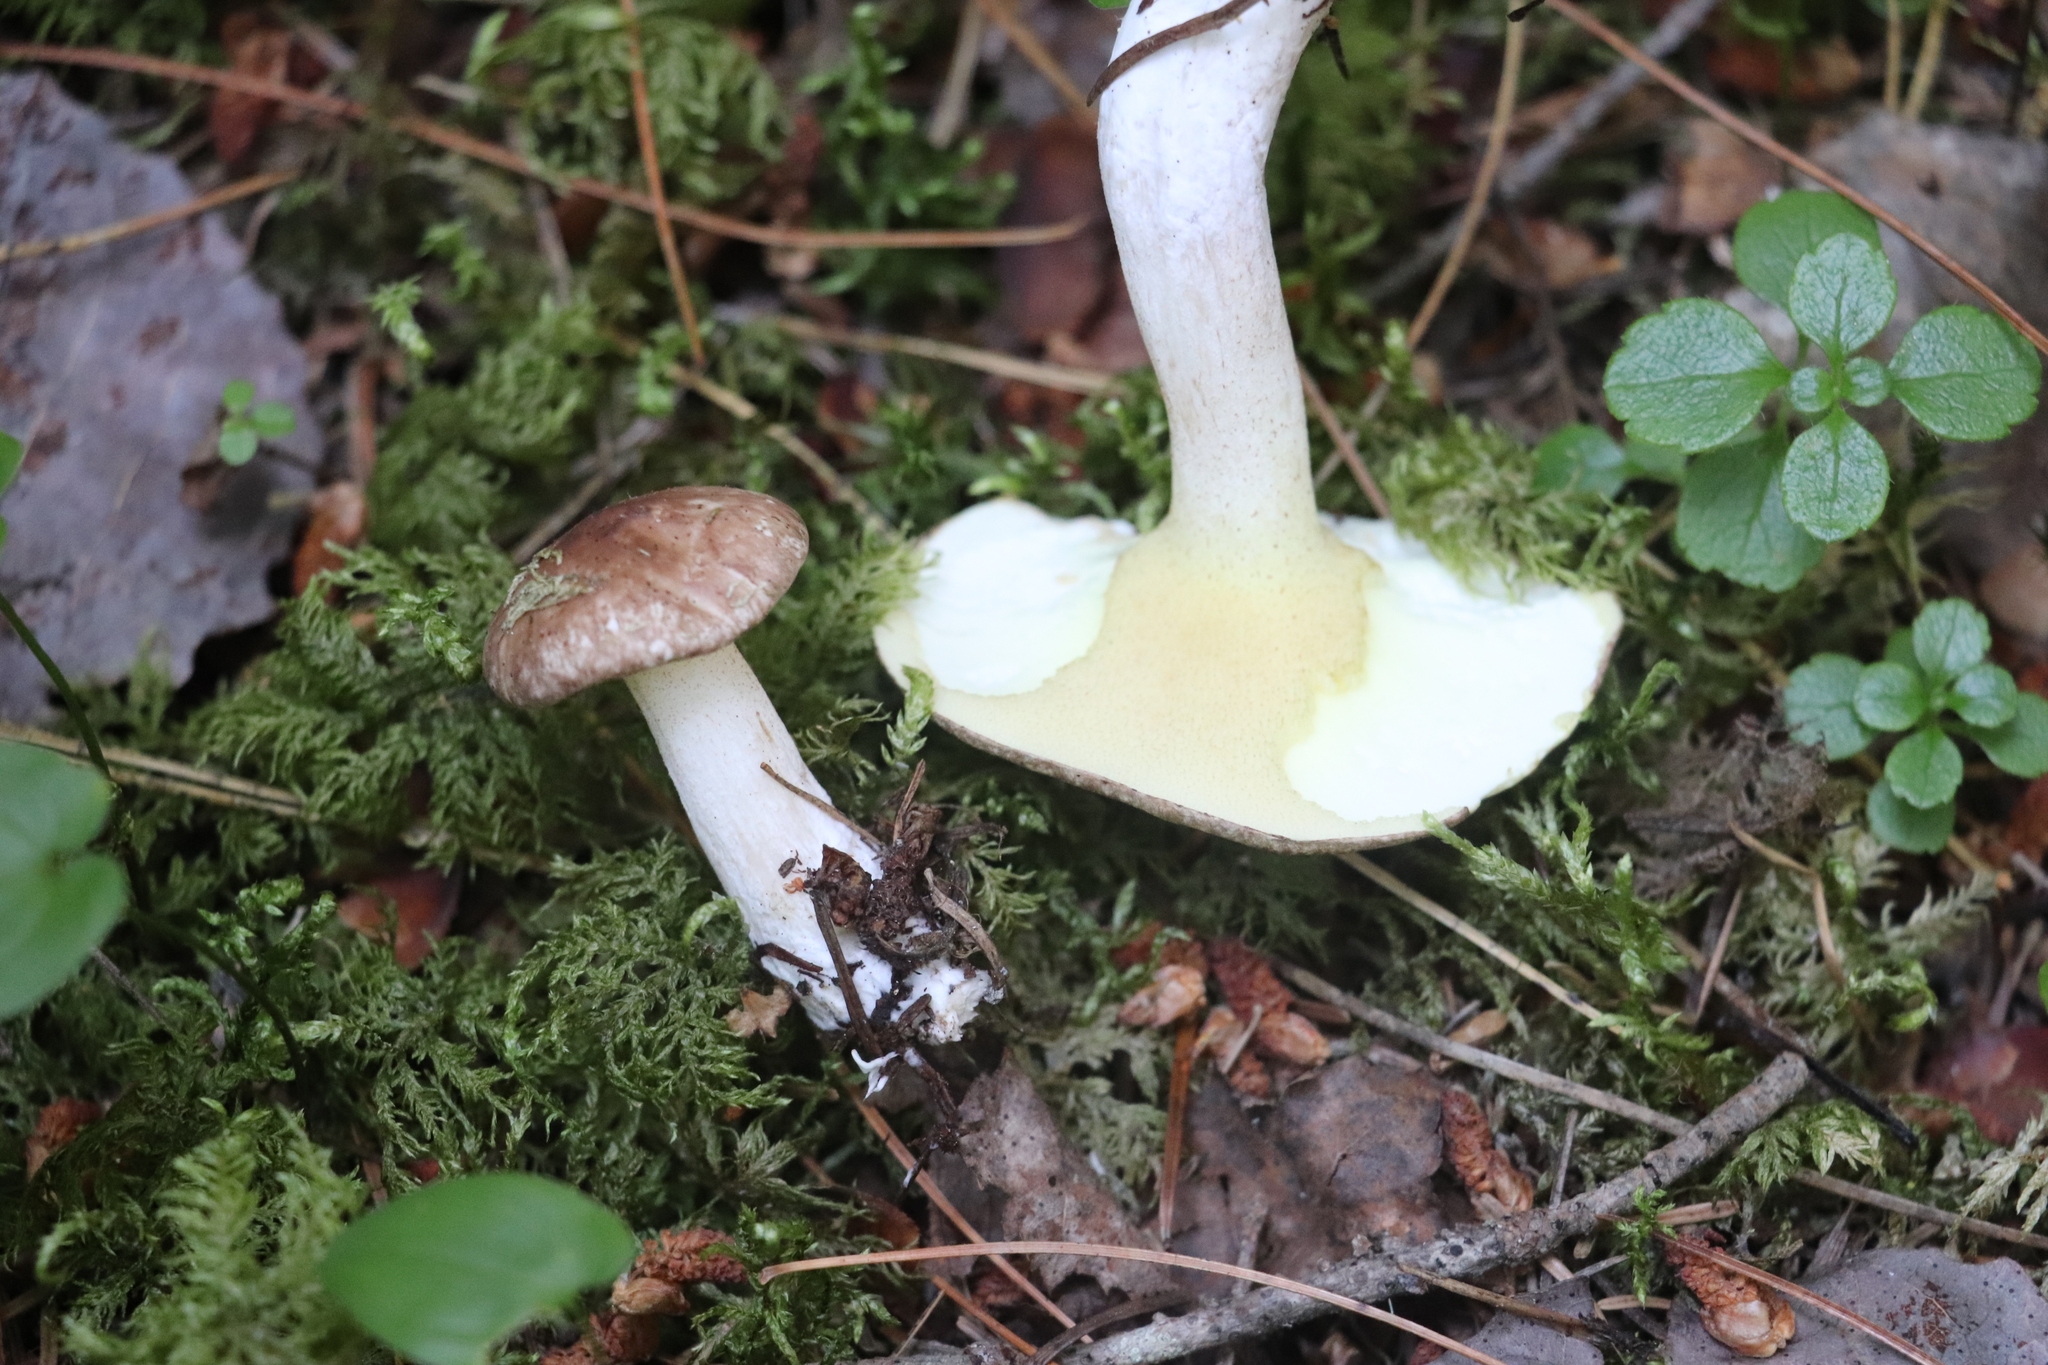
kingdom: Fungi
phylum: Basidiomycota
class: Agaricomycetes
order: Boletales
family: Suillaceae
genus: Suillus
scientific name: Suillus placidus
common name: Slippery white bolete
